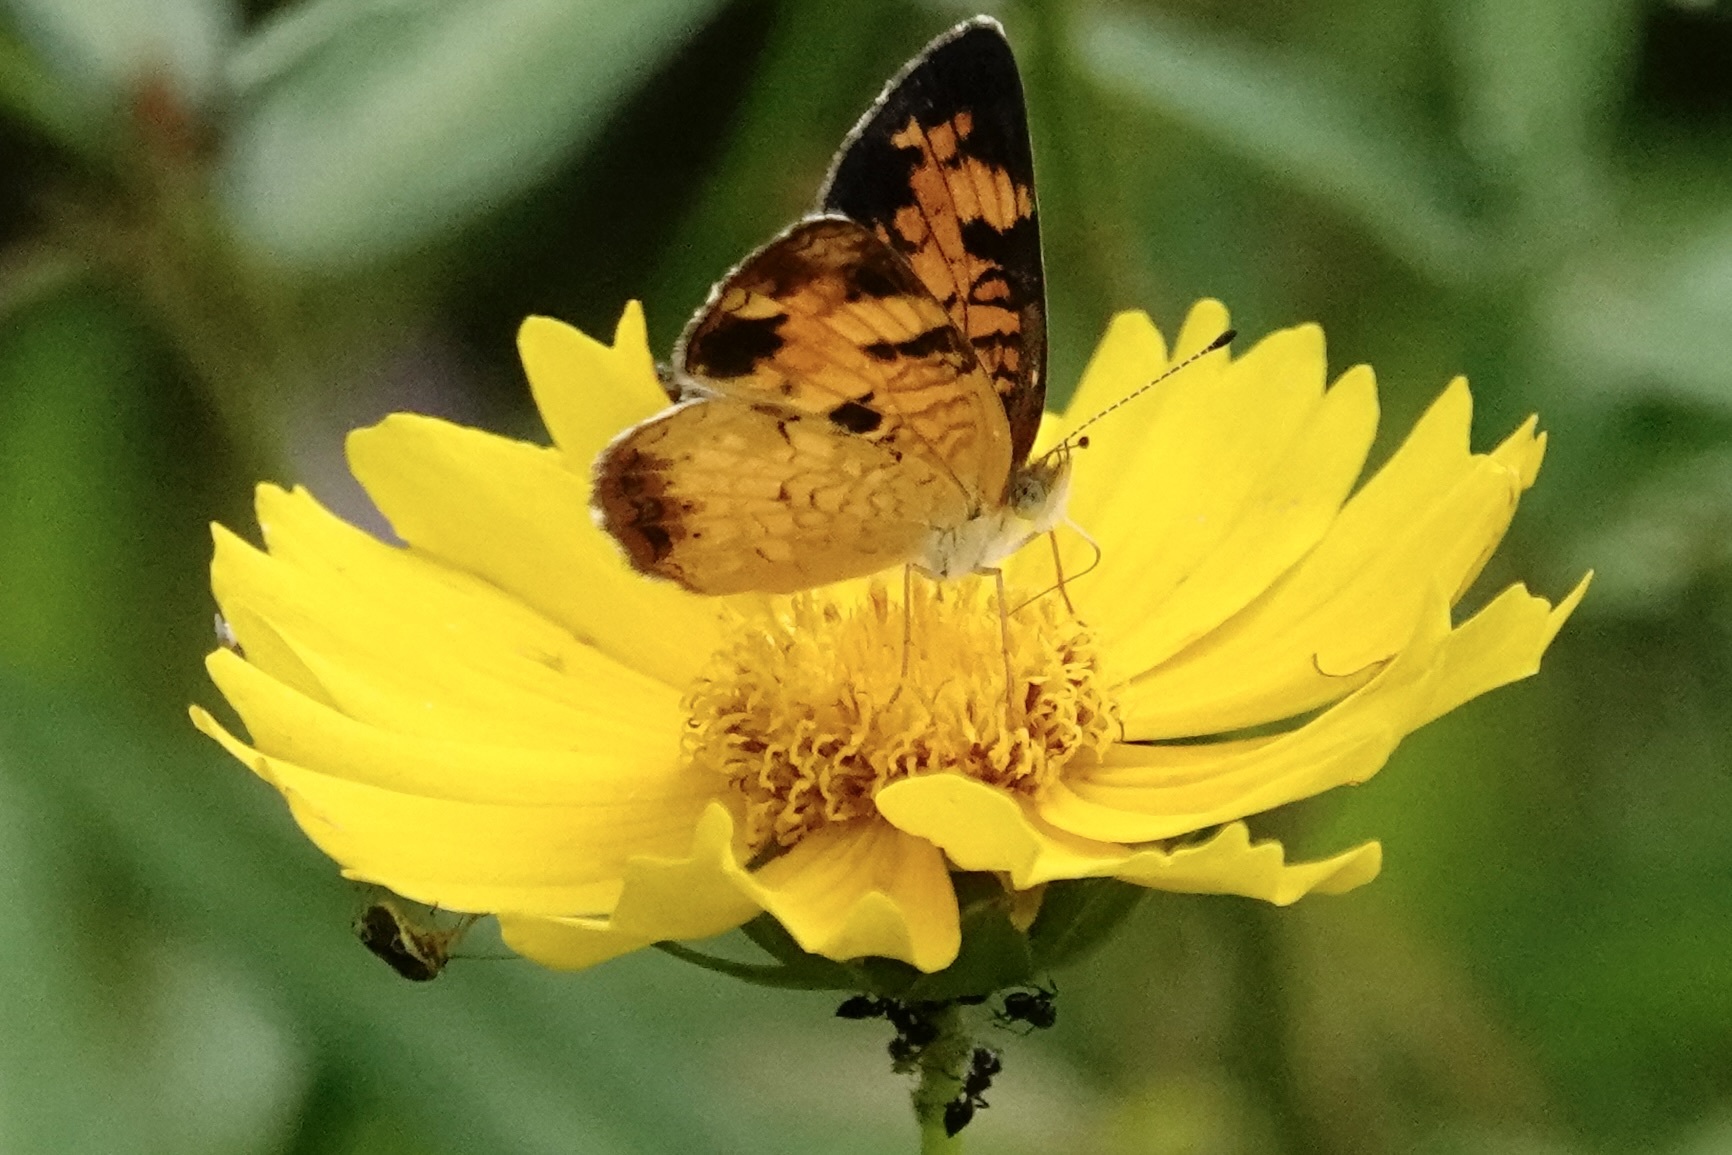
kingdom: Animalia
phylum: Arthropoda
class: Insecta
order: Lepidoptera
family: Nymphalidae
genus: Phyciodes
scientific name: Phyciodes tharos
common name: Pearl crescent
